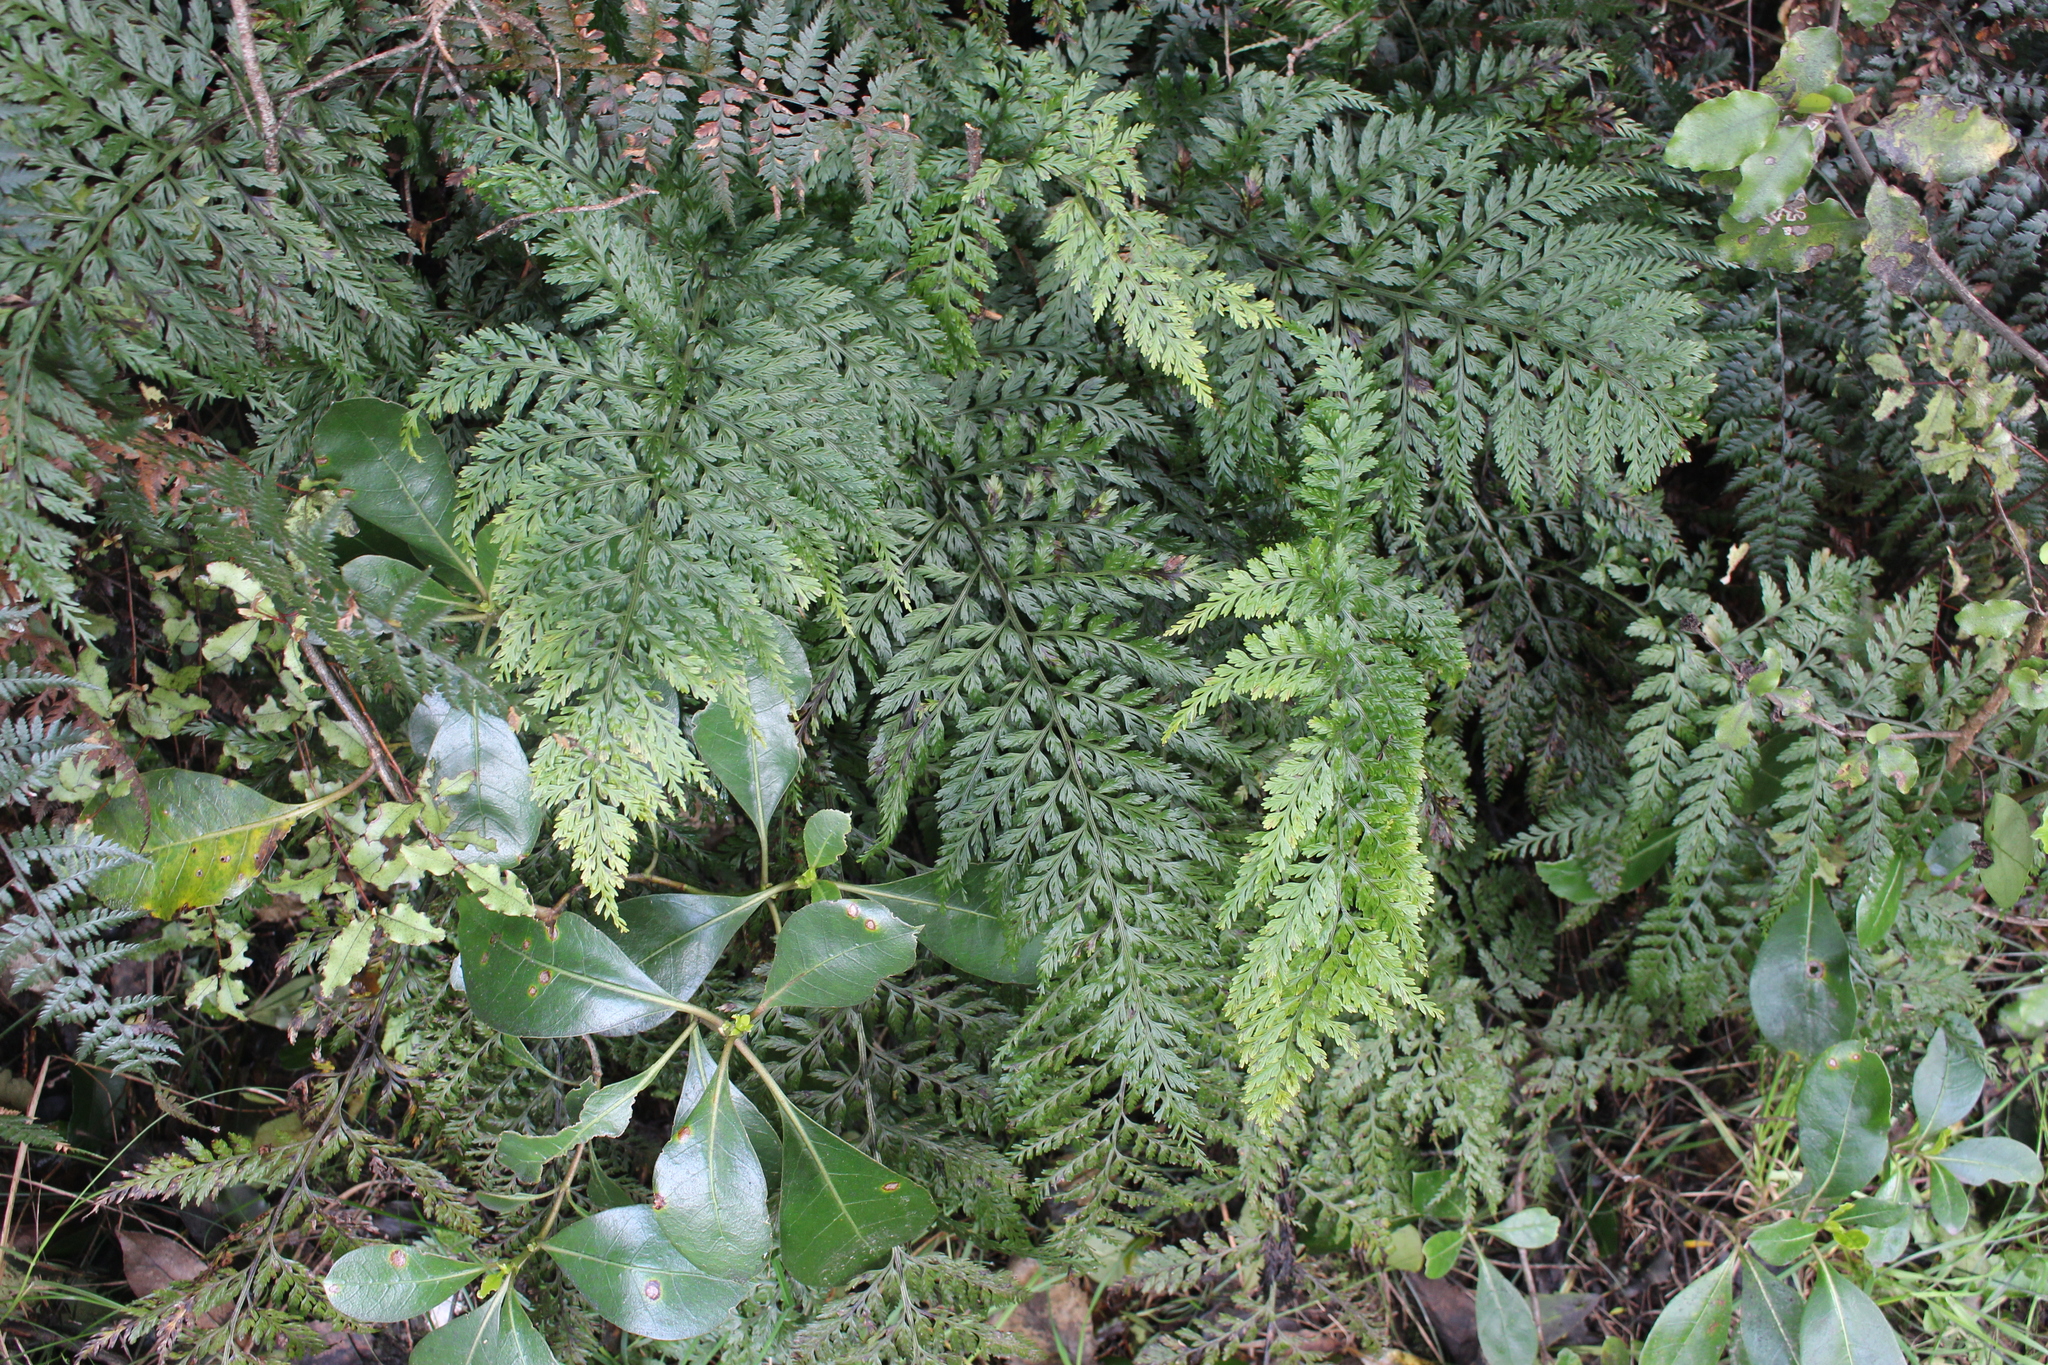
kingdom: Plantae
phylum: Tracheophyta
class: Polypodiopsida
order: Polypodiales
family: Aspleniaceae
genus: Asplenium
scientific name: Asplenium
